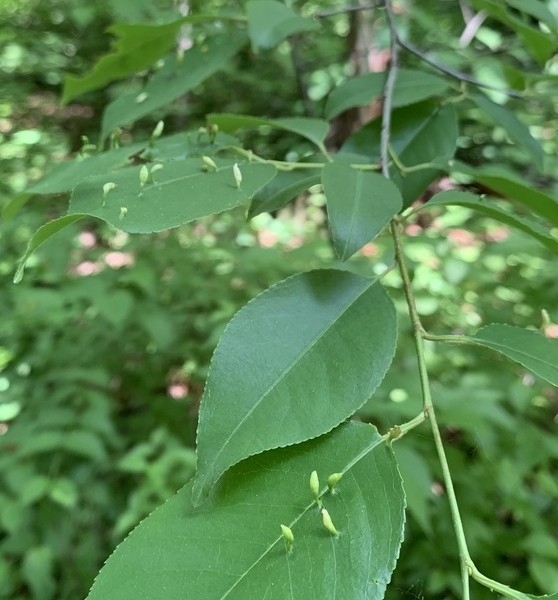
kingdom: Animalia
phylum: Arthropoda
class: Arachnida
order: Trombidiformes
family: Eriophyidae
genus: Eriophyes
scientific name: Eriophyes
